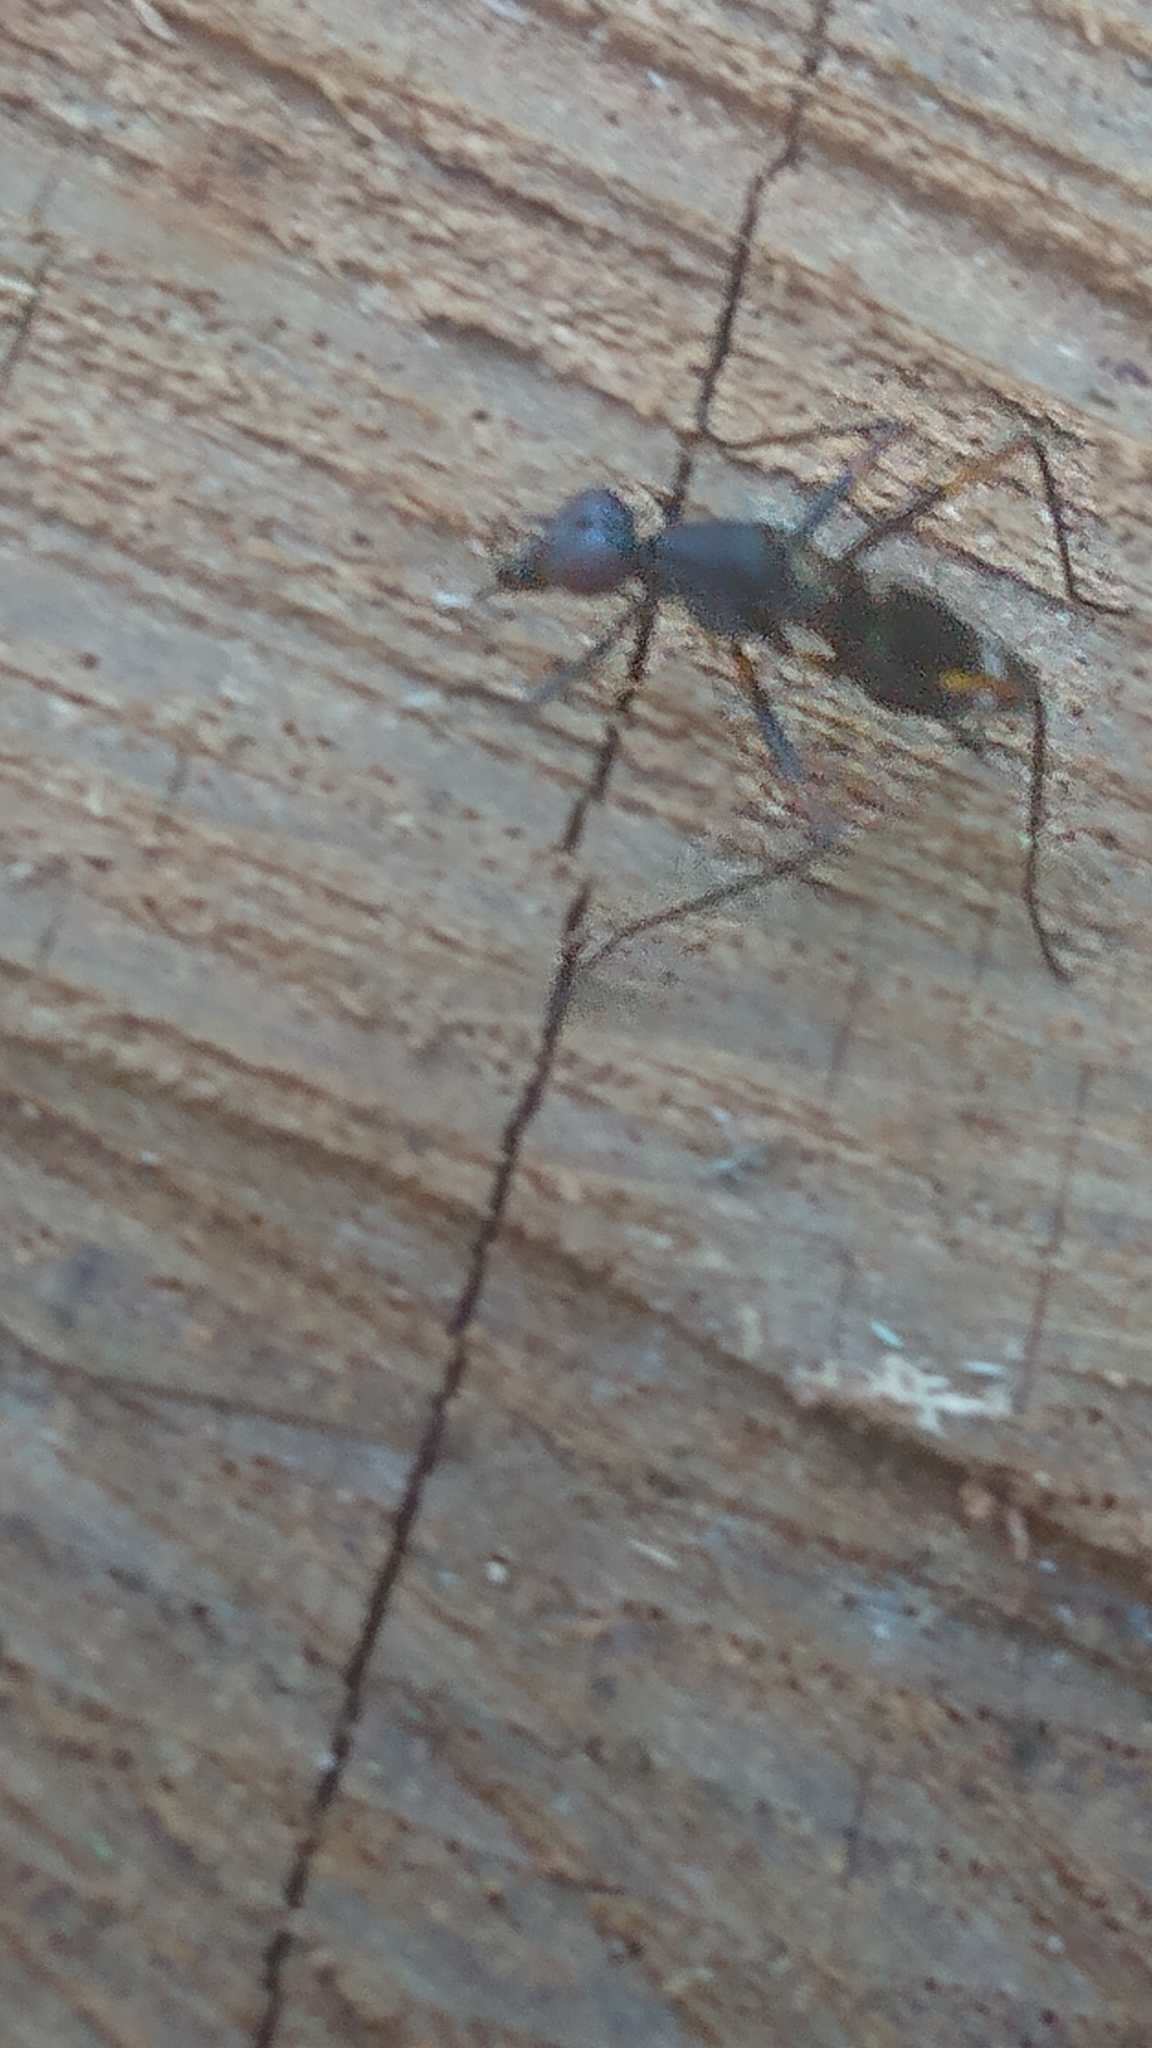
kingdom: Animalia
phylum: Arthropoda
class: Insecta
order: Diptera
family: Micropezidae
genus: Taeniaptera
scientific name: Taeniaptera trivittata
